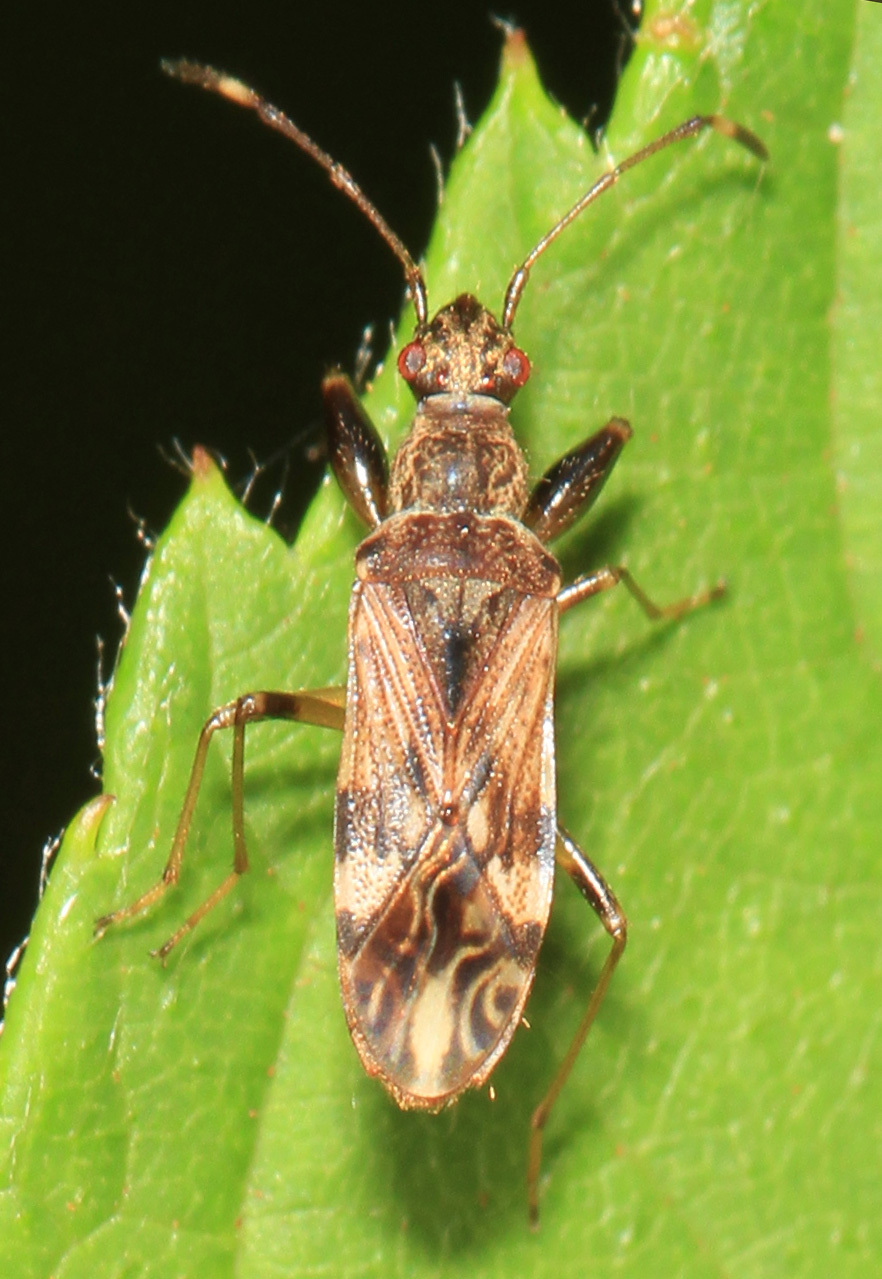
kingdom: Animalia
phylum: Arthropoda
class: Insecta
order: Hemiptera
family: Rhyparochromidae
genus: Neopamera
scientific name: Neopamera albocincta
